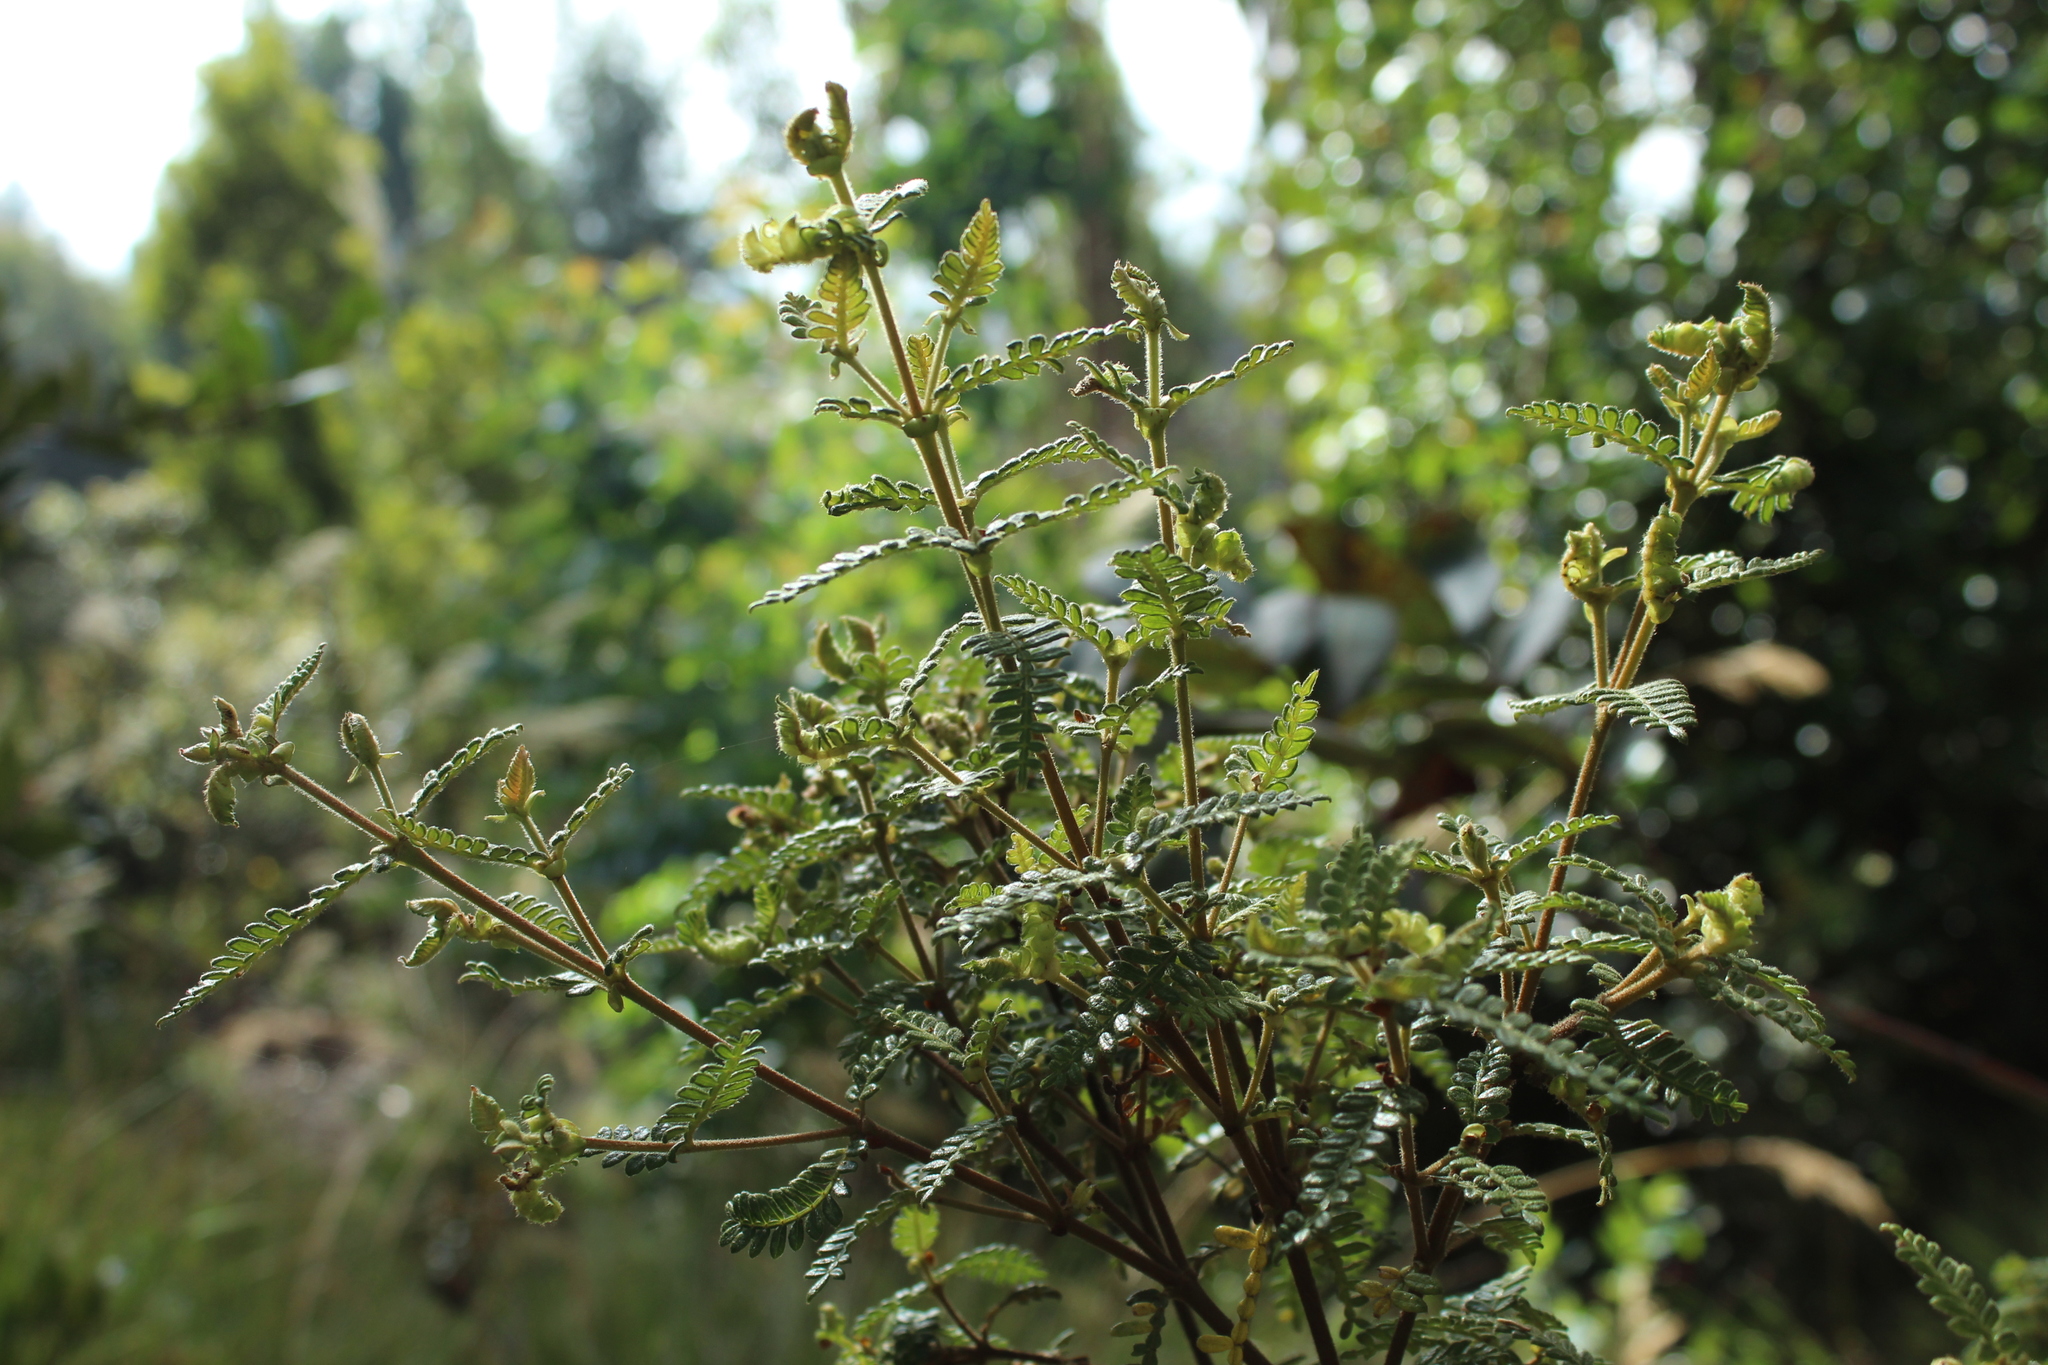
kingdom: Plantae
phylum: Tracheophyta
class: Magnoliopsida
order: Oxalidales
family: Cunoniaceae
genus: Weinmannia
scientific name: Weinmannia tomentosa
